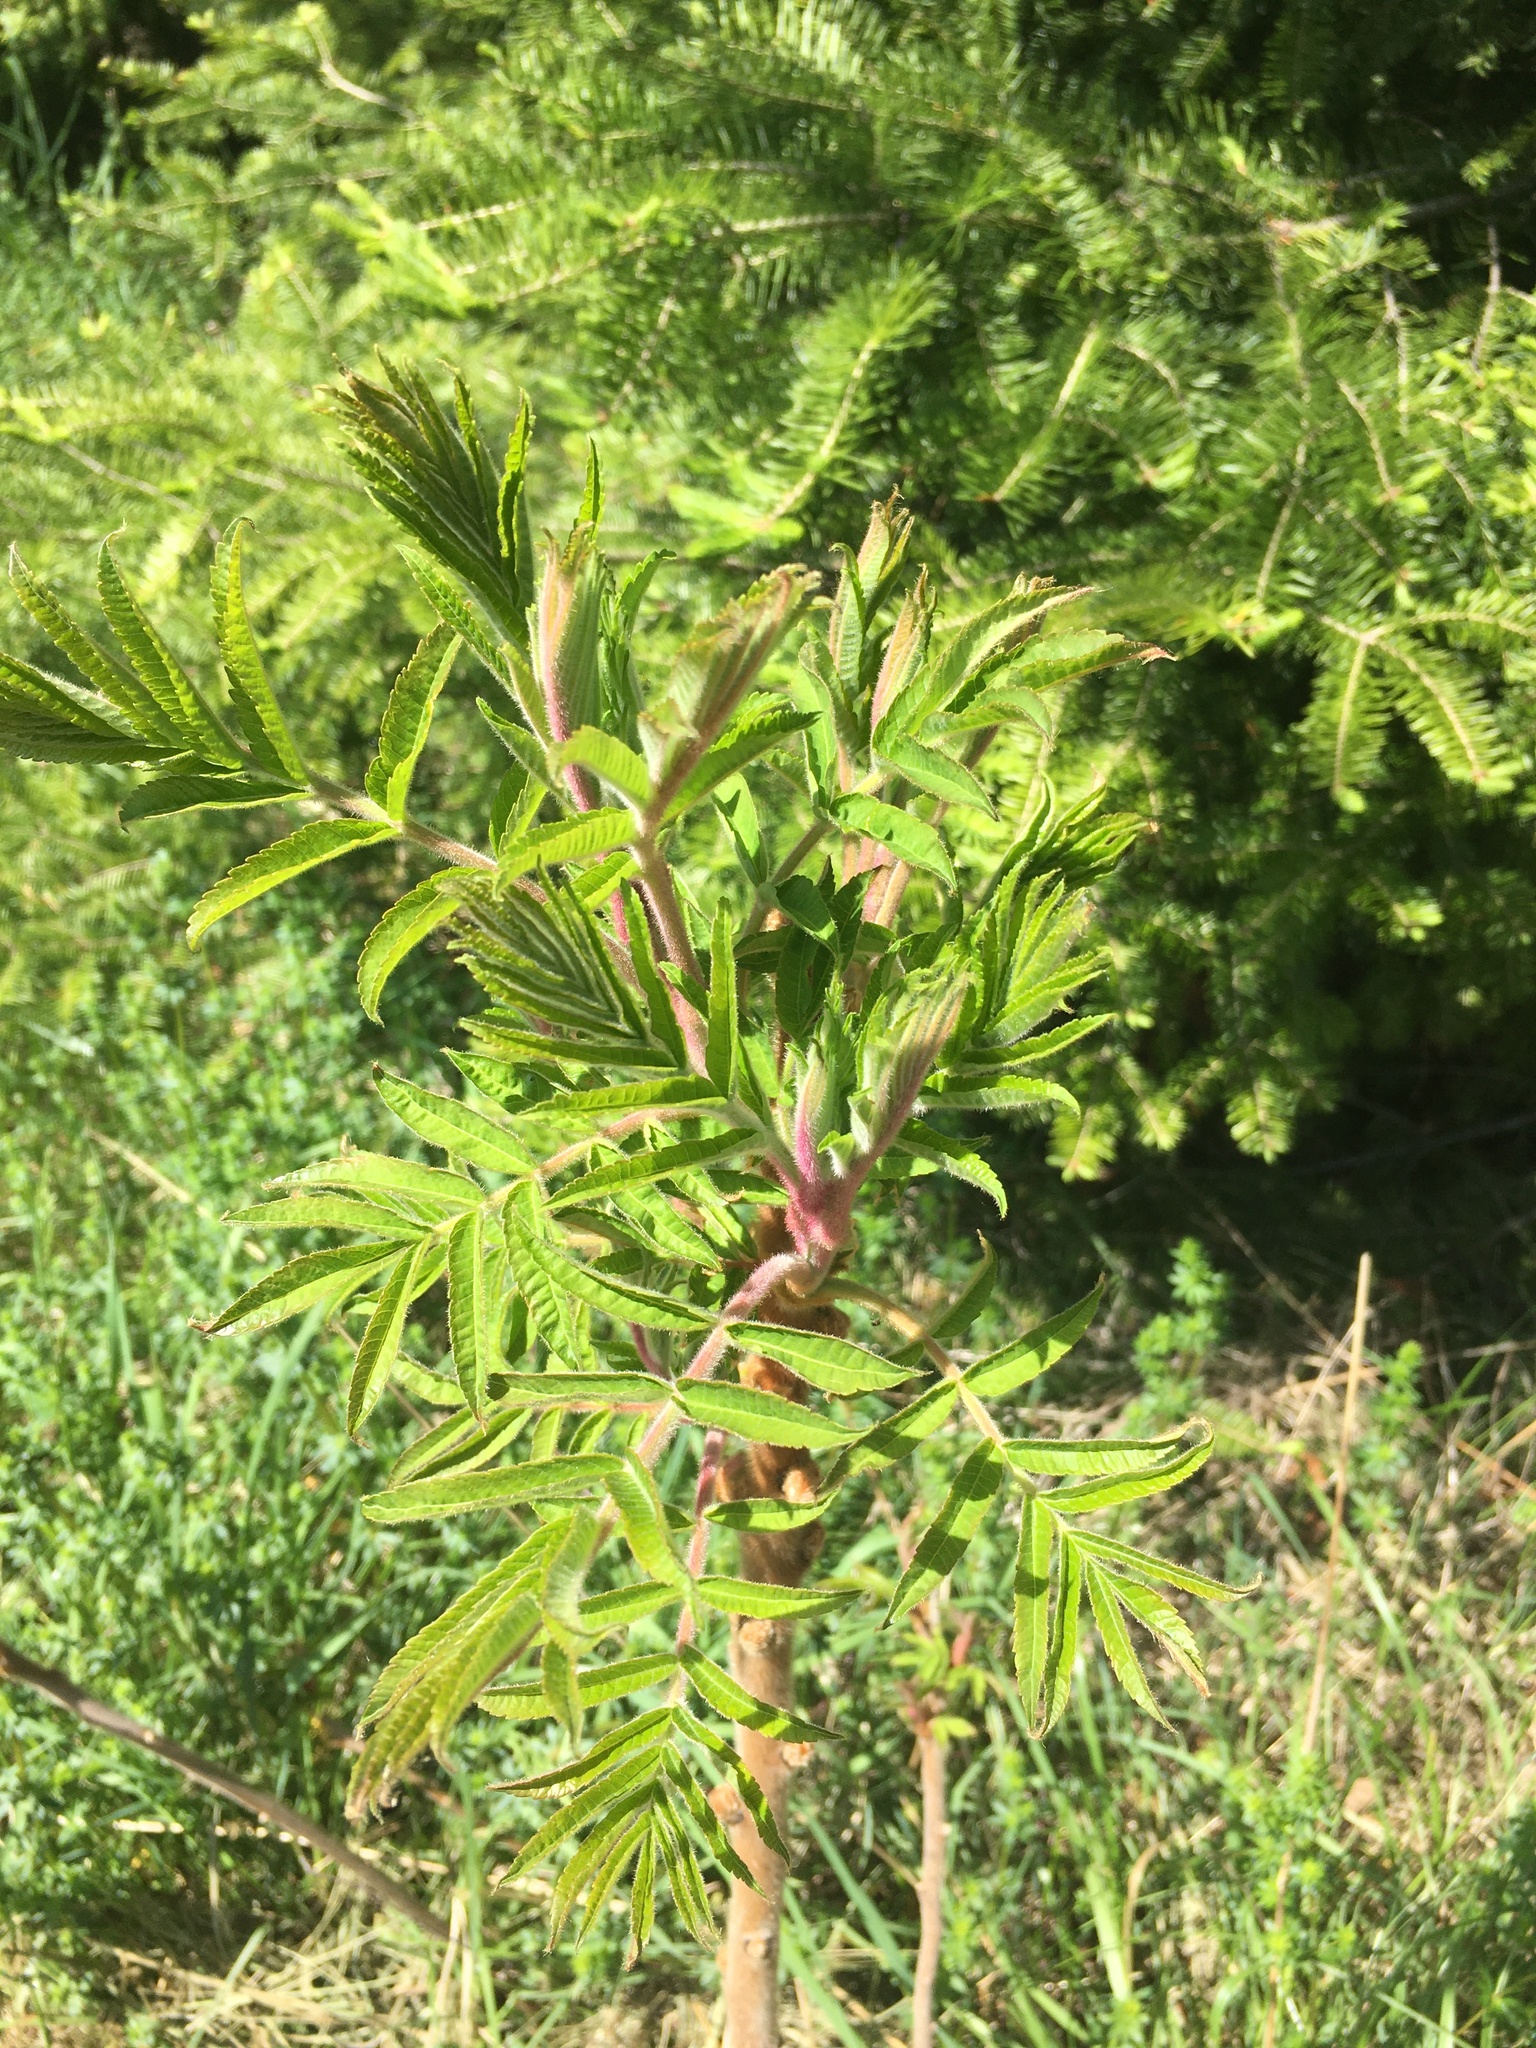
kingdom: Plantae
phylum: Tracheophyta
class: Magnoliopsida
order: Sapindales
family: Anacardiaceae
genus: Rhus
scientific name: Rhus typhina
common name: Staghorn sumac
